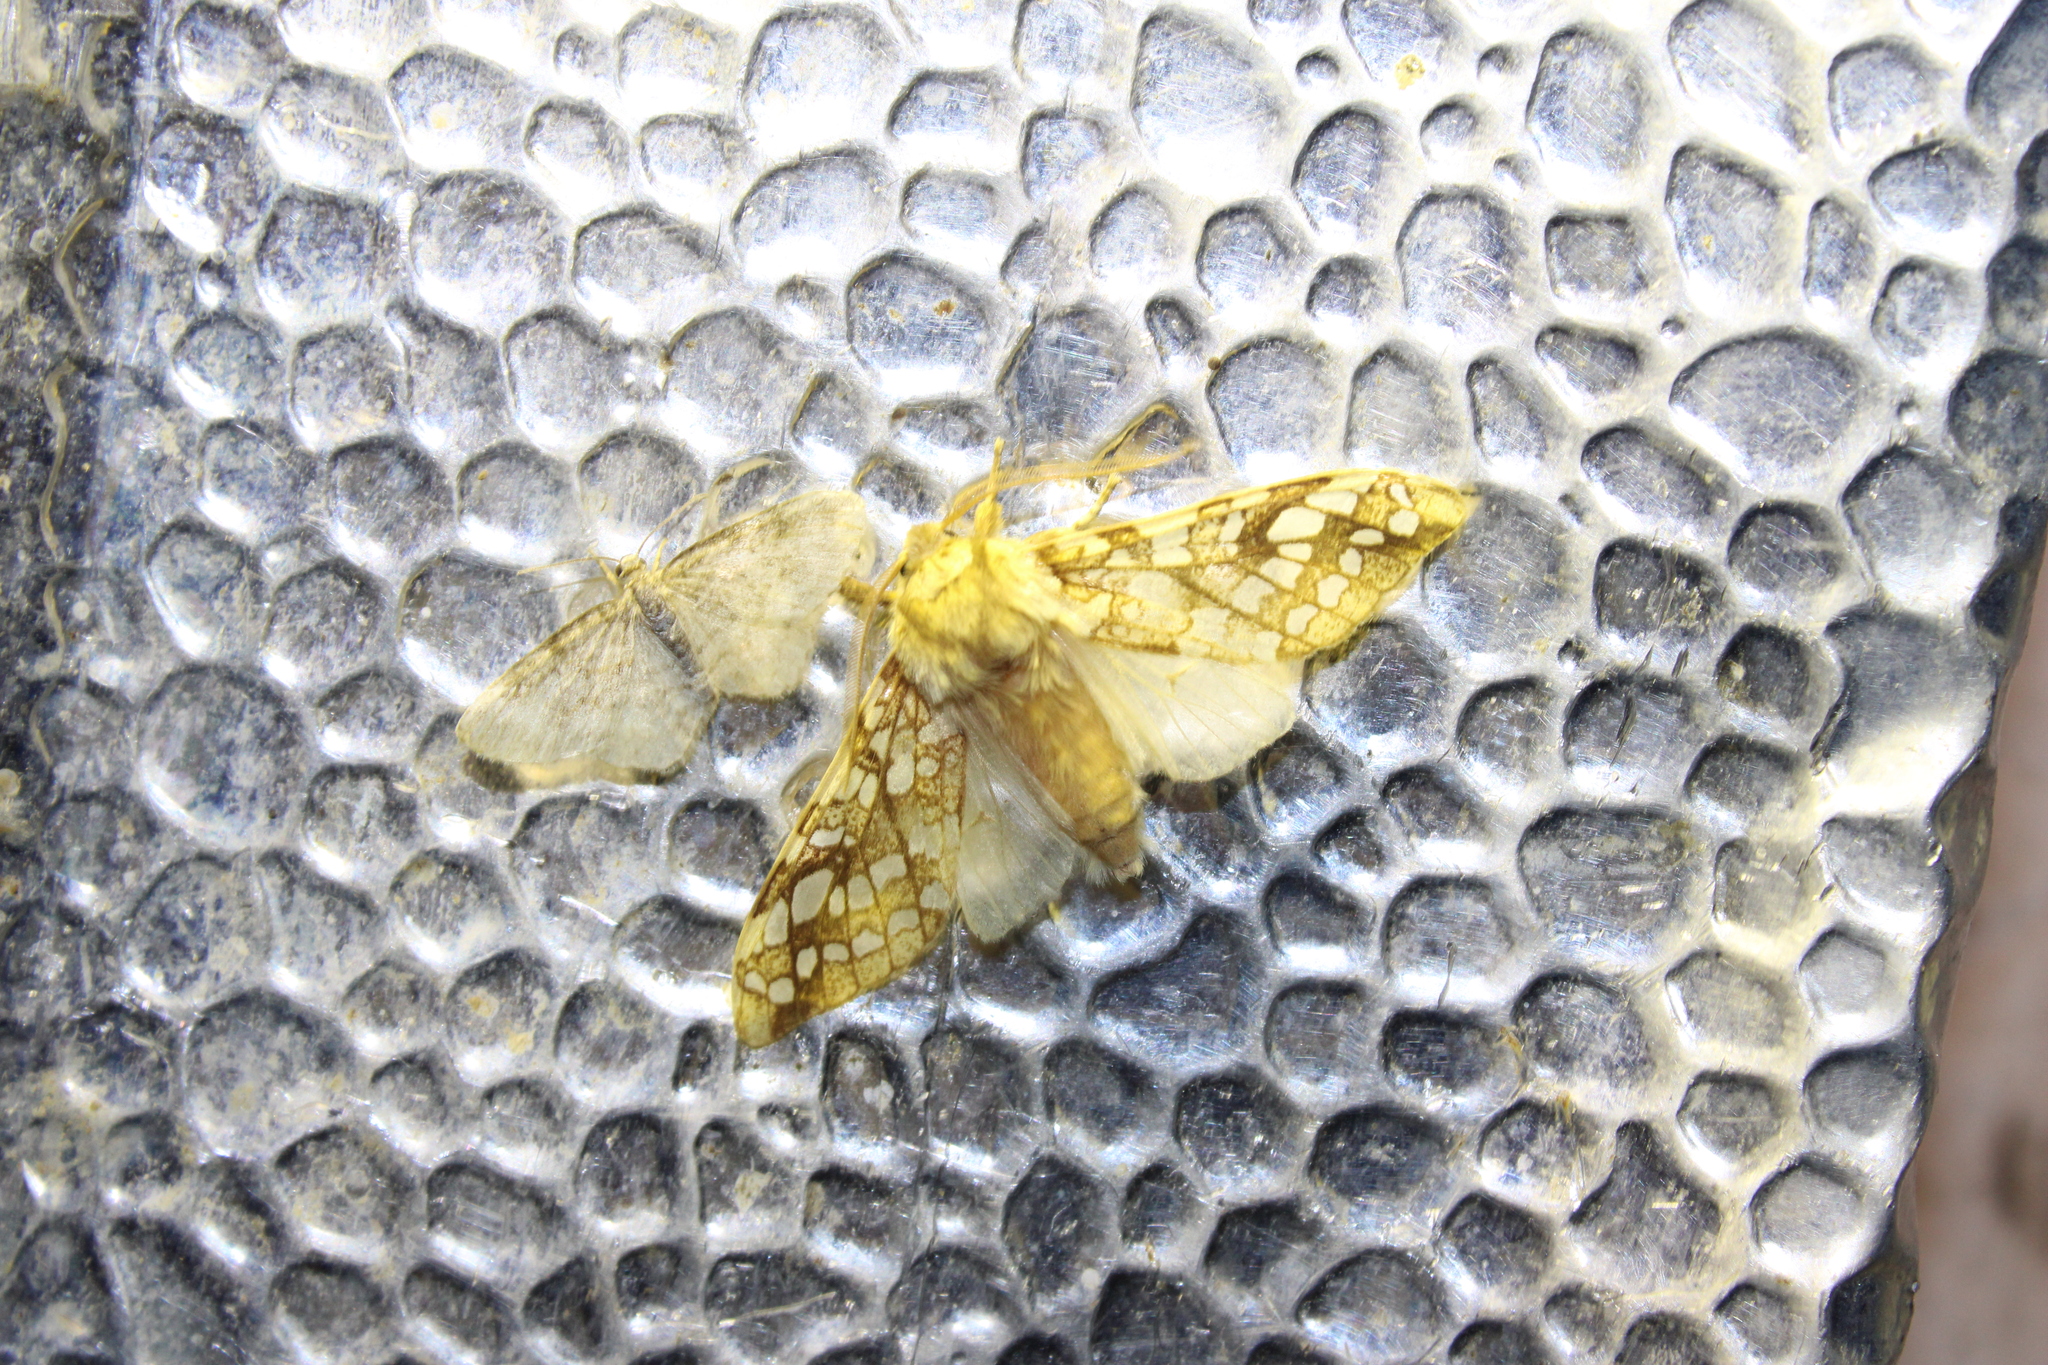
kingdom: Animalia
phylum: Arthropoda
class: Insecta
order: Lepidoptera
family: Erebidae
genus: Lophocampa
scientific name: Lophocampa caryae
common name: Hickory tussock moth
